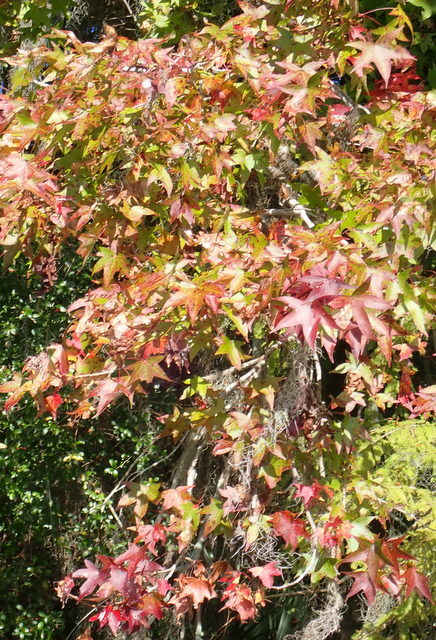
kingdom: Plantae
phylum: Tracheophyta
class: Magnoliopsida
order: Saxifragales
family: Altingiaceae
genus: Liquidambar
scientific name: Liquidambar styraciflua
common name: Sweet gum
